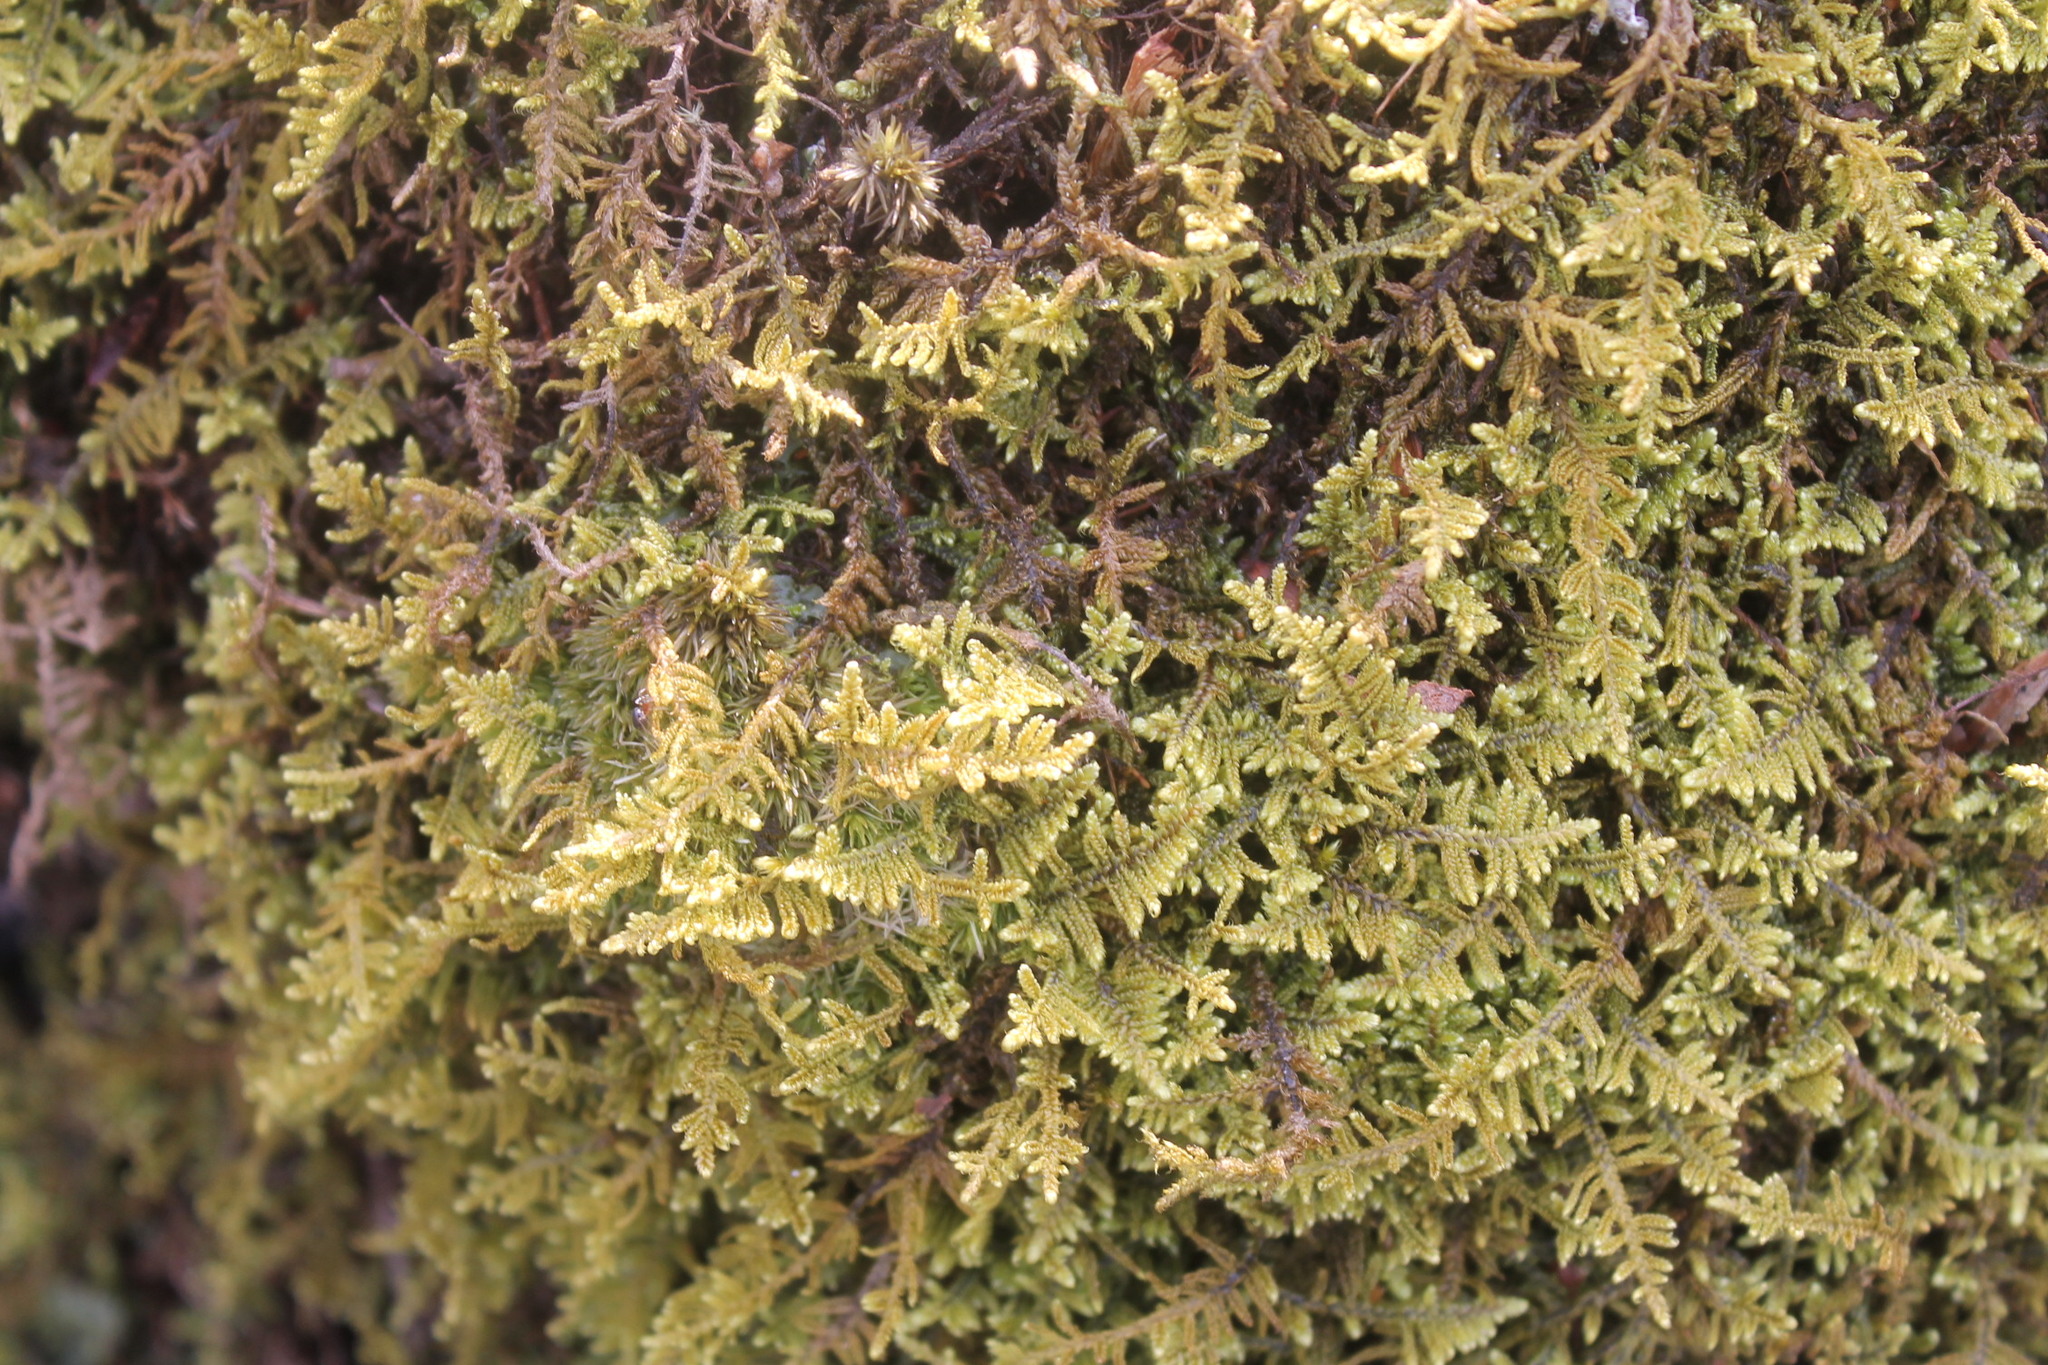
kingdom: Plantae
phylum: Bryophyta
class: Bryopsida
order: Hypnales
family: Callicladiaceae
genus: Callicladium
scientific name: Callicladium imponens
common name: Brocade moss
